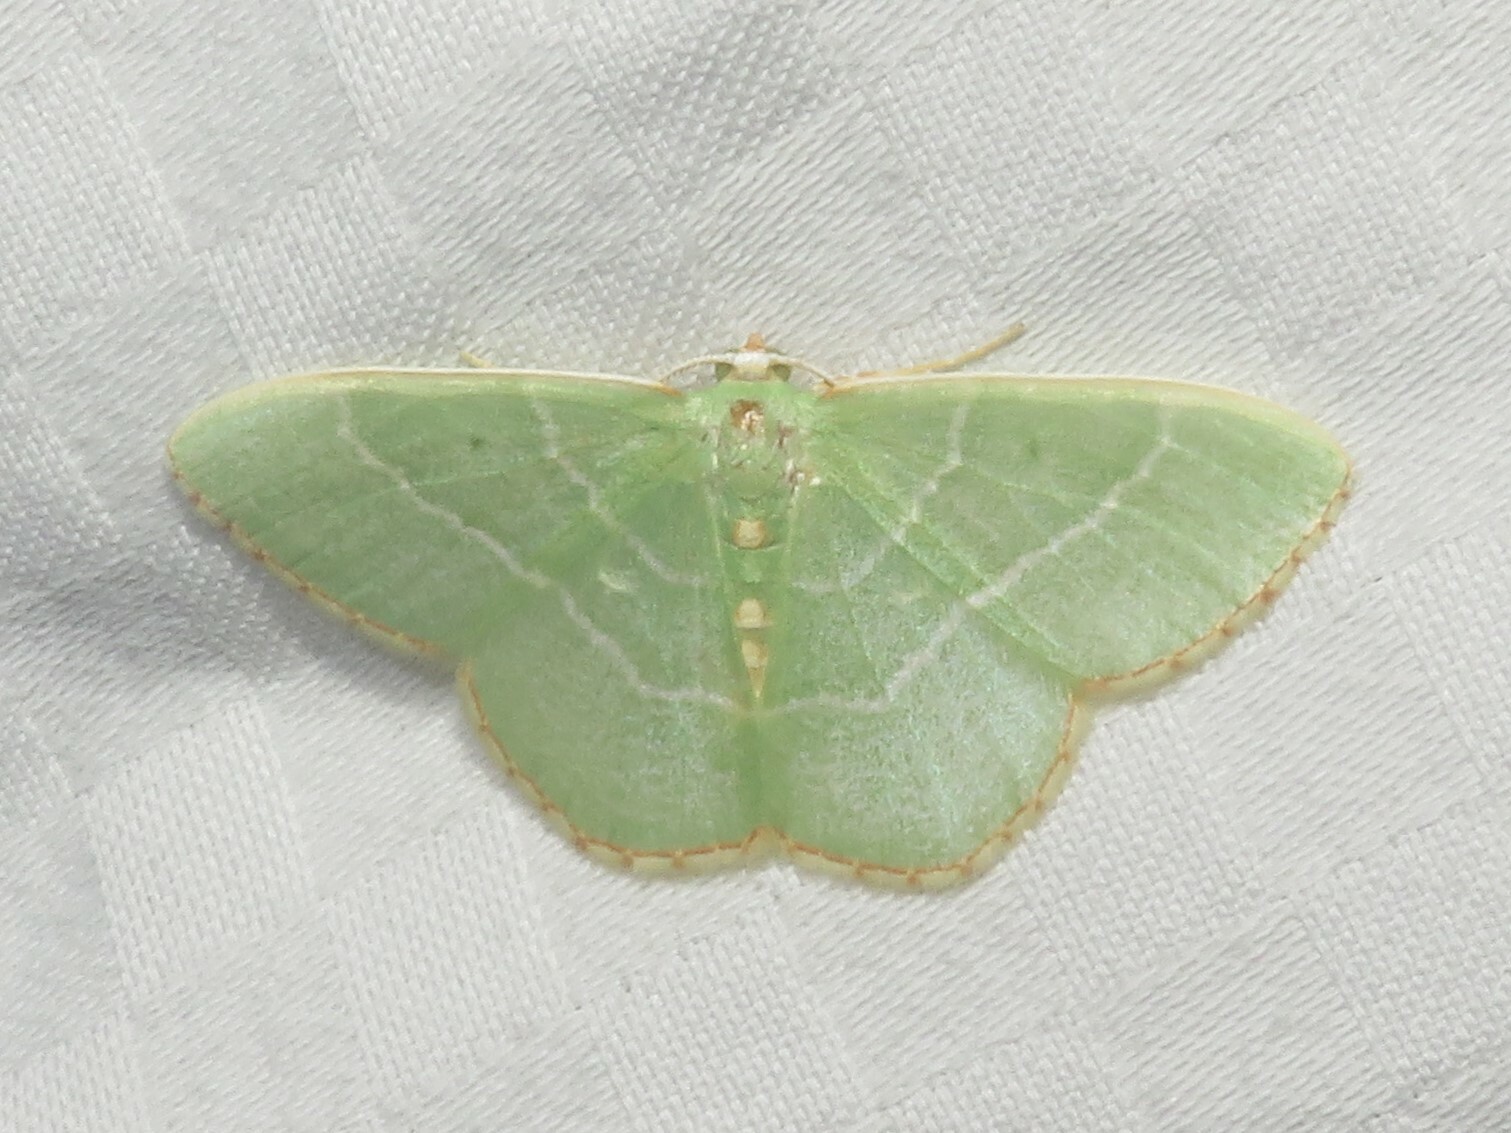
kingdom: Animalia
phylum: Arthropoda
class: Insecta
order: Lepidoptera
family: Geometridae
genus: Nemoria
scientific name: Nemoria bistriaria
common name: Red-fringed emerald
